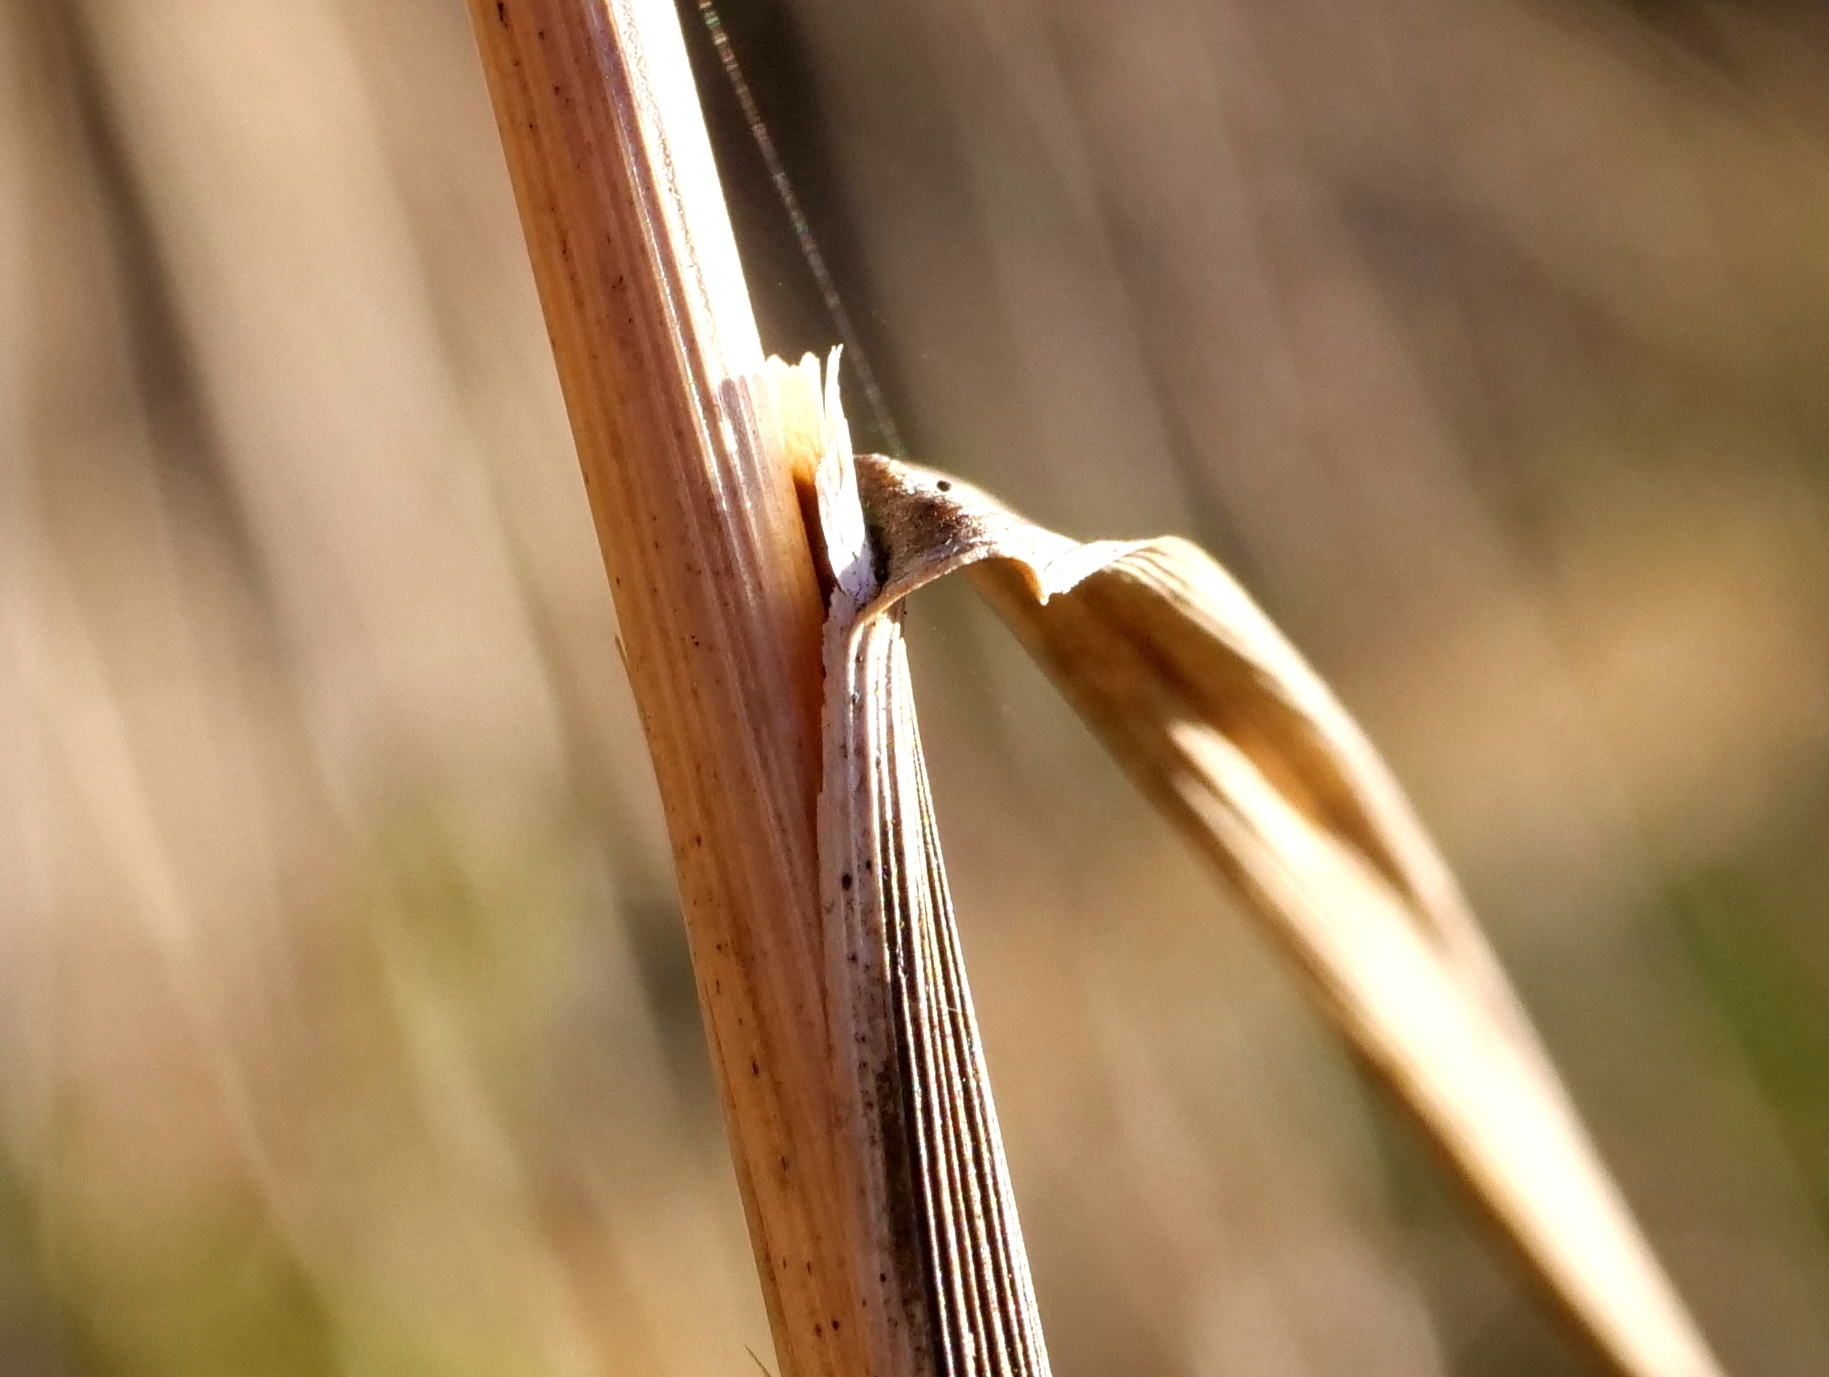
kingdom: Plantae
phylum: Tracheophyta
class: Liliopsida
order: Poales
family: Poaceae
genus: Calamagrostis
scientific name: Calamagrostis epigejos
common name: Wood small-reed
